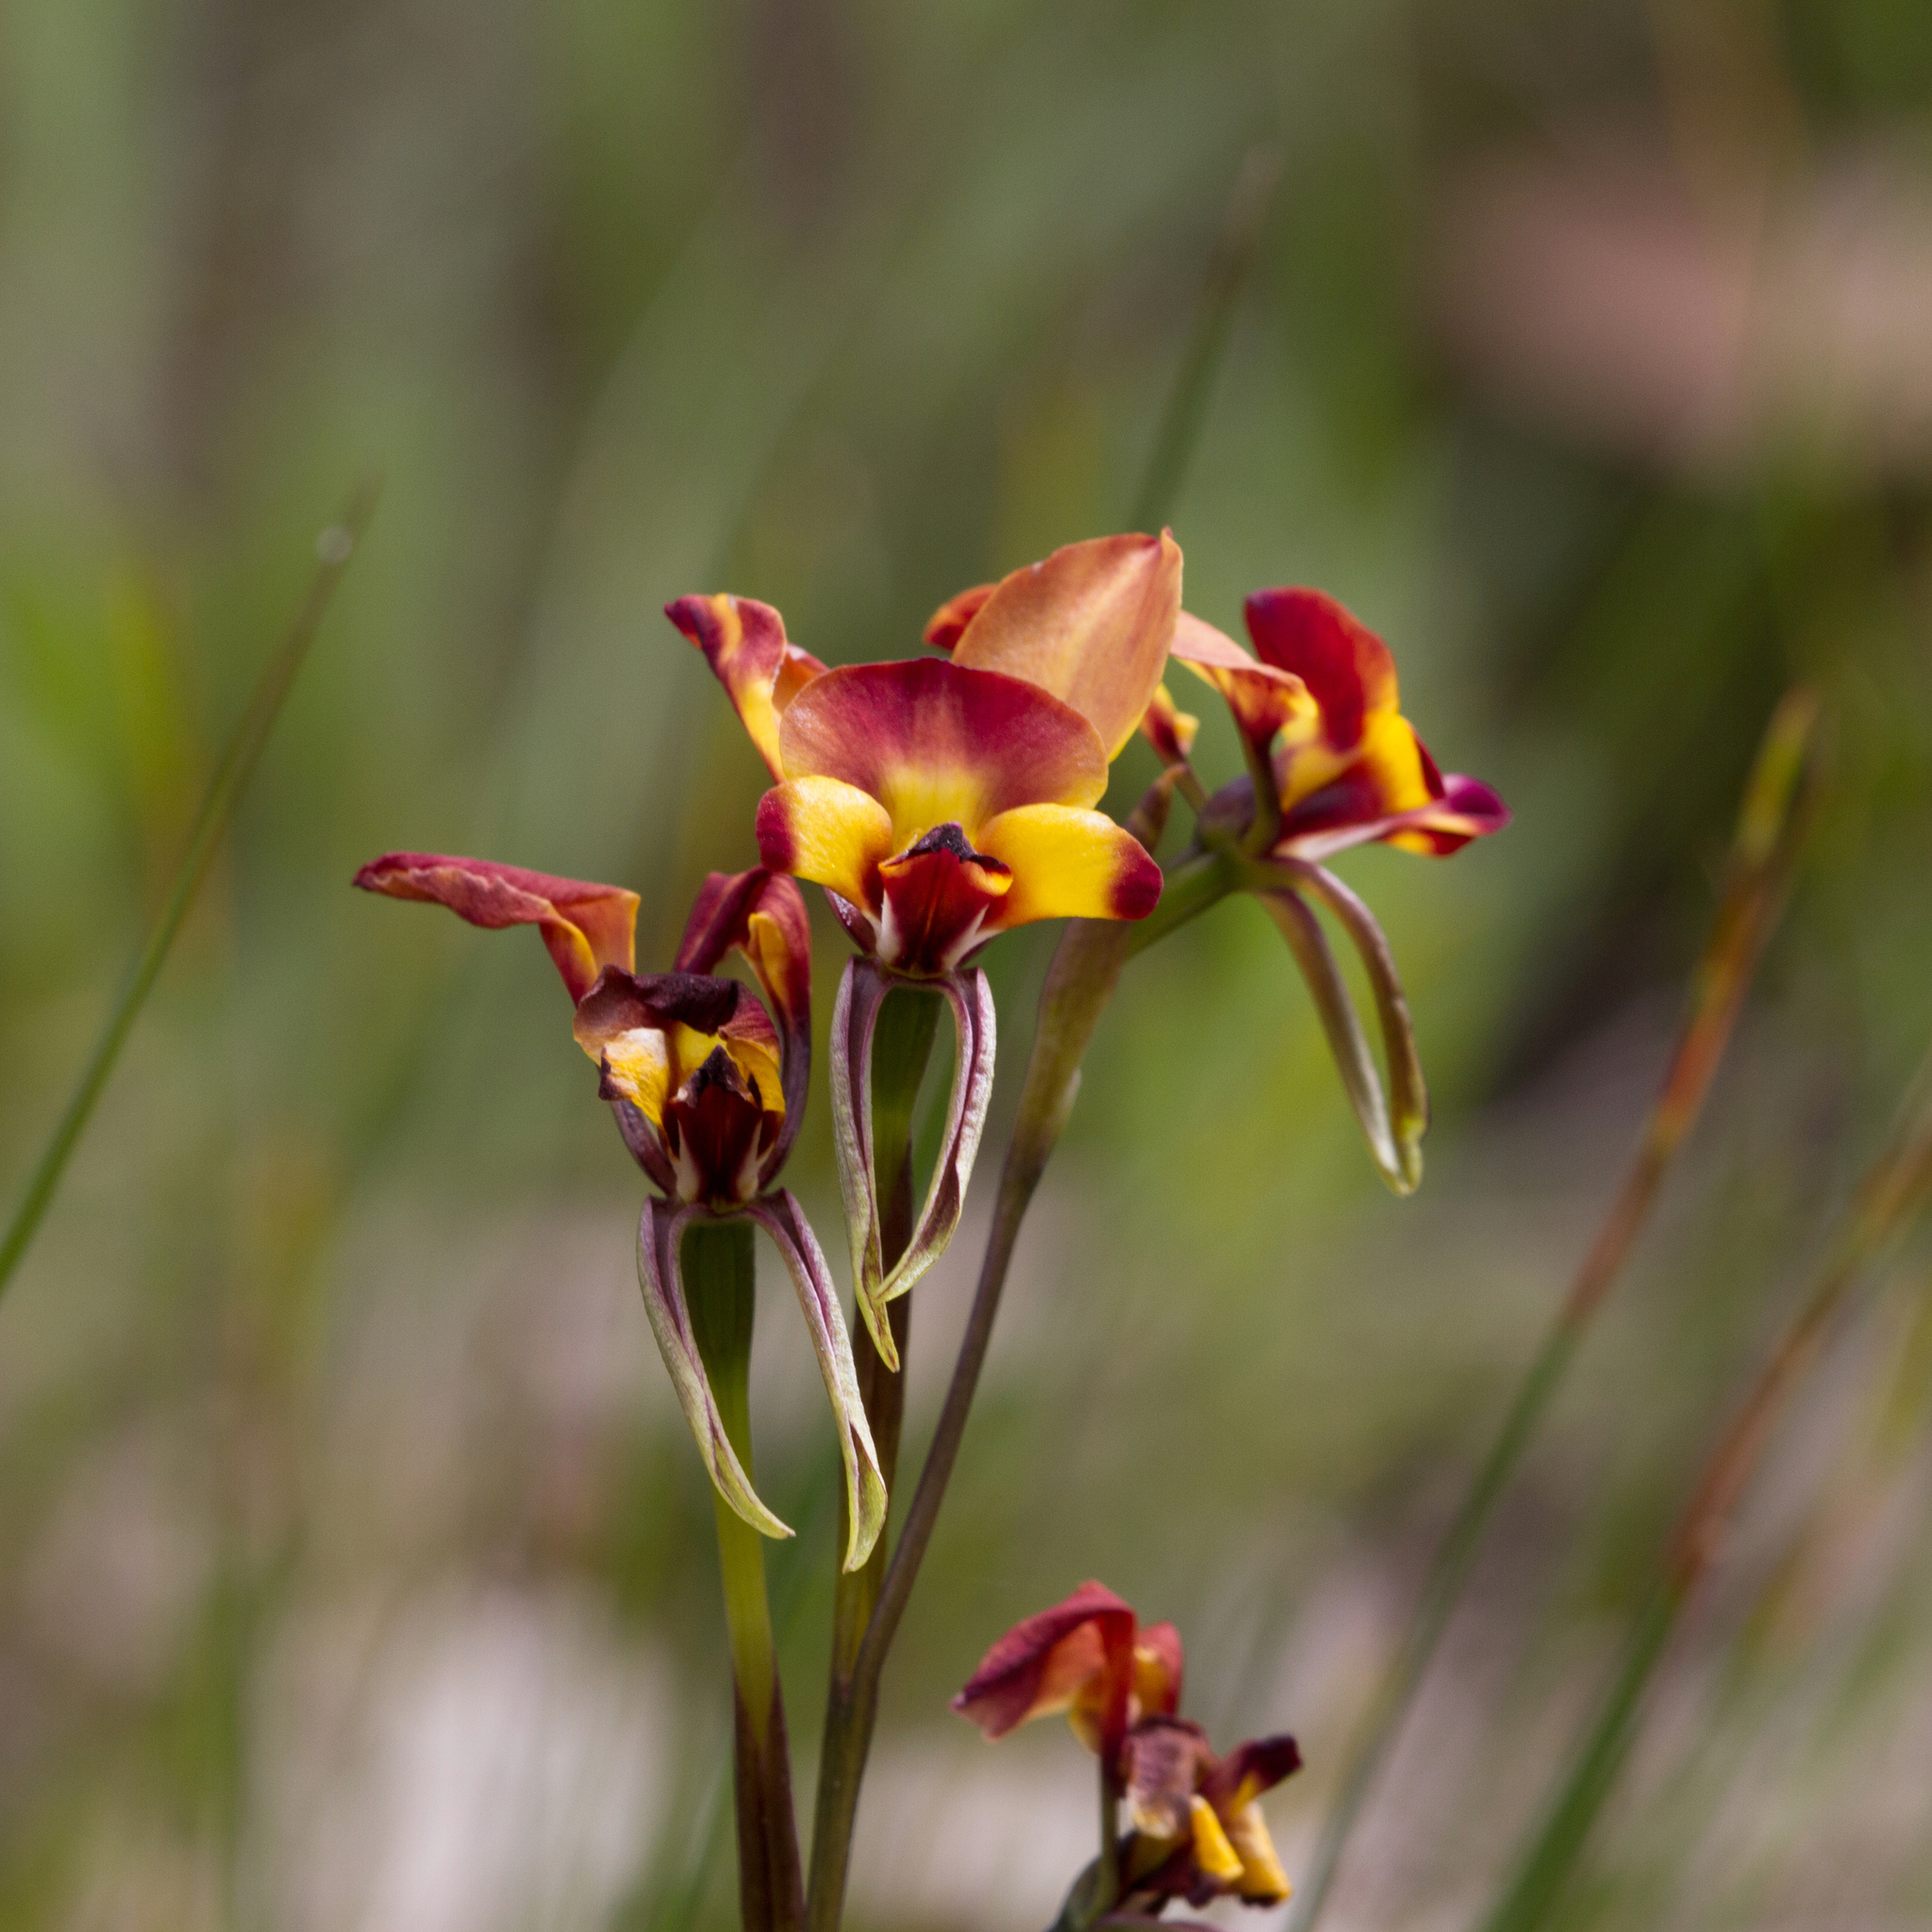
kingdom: Plantae
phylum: Tracheophyta
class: Liliopsida
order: Asparagales
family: Orchidaceae
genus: Diuris
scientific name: Diuris orientis
